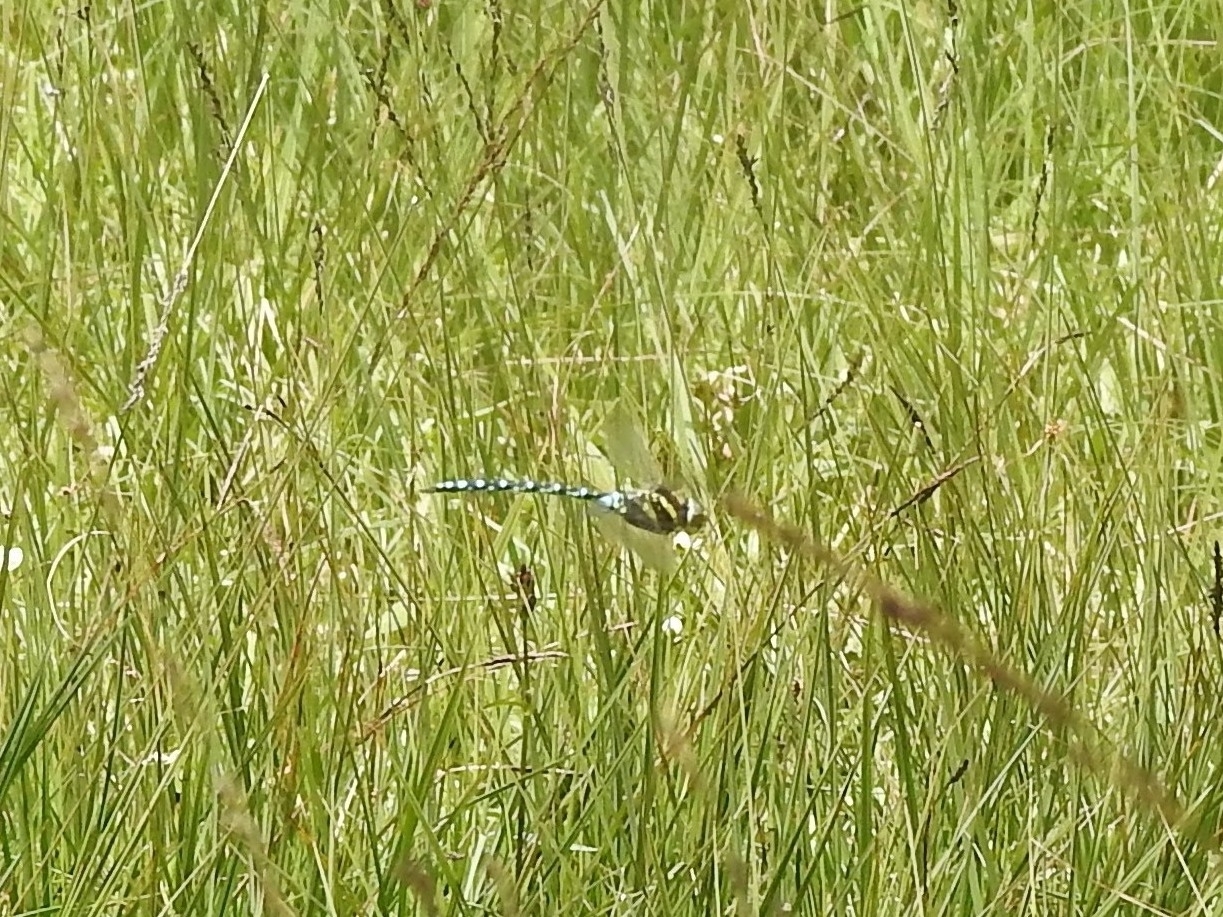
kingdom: Animalia
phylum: Arthropoda
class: Insecta
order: Odonata
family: Aeshnidae
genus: Aeshna
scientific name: Aeshna juncea
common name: Moorland hawker
